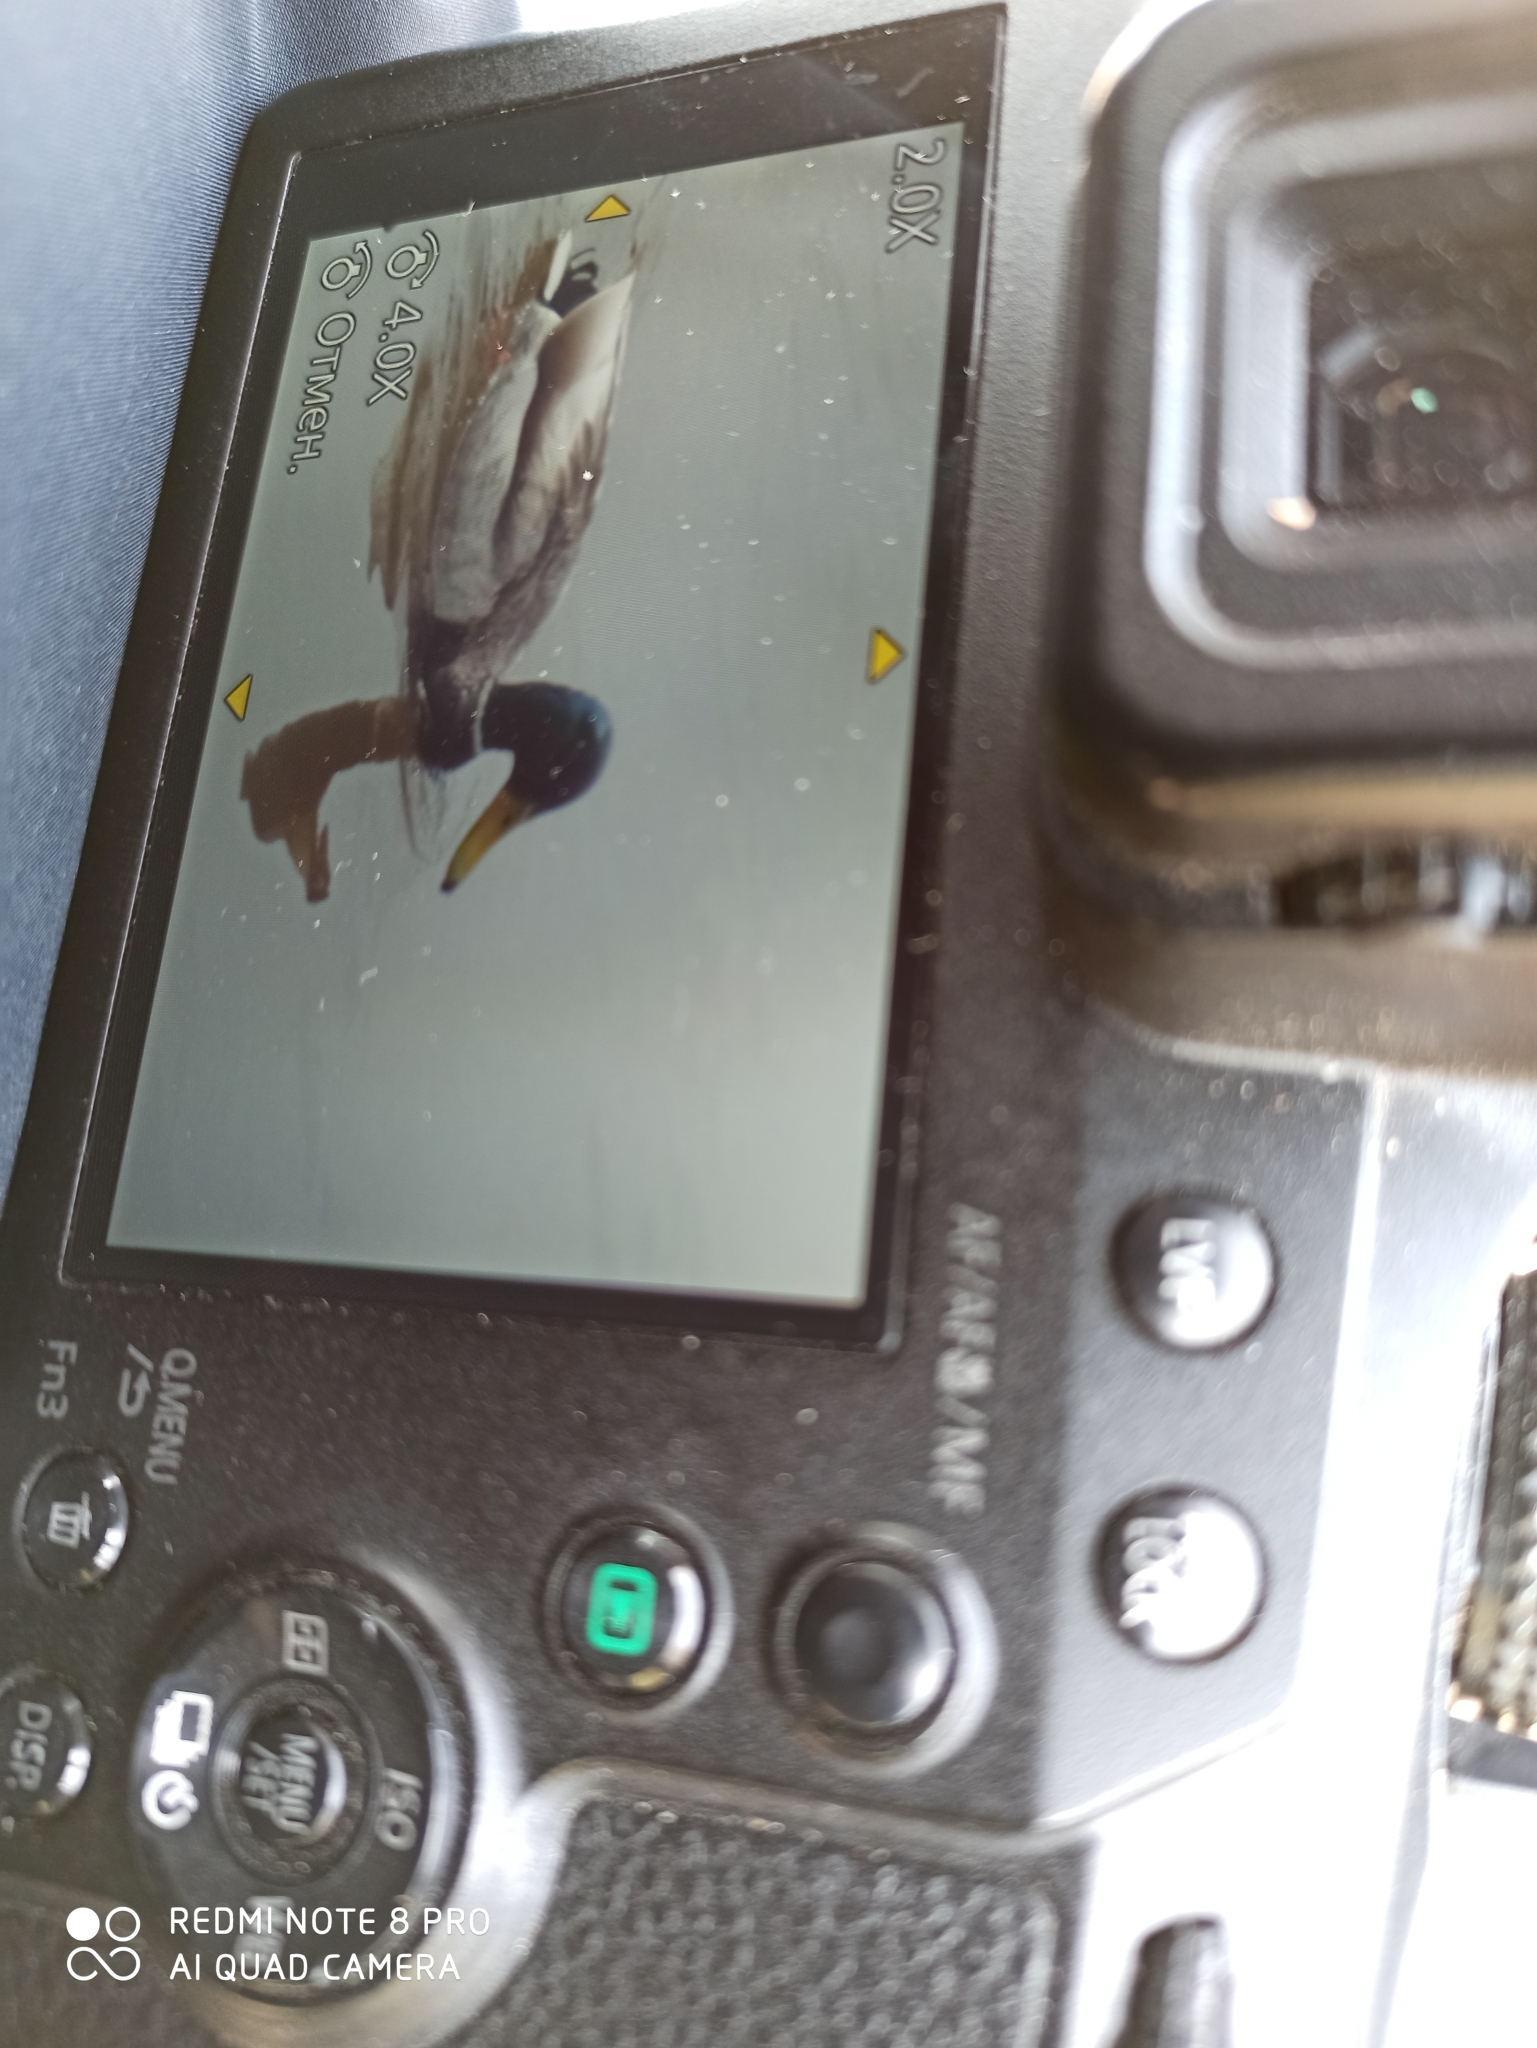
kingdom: Animalia
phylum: Chordata
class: Aves
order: Anseriformes
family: Anatidae
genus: Anas
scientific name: Anas platyrhynchos
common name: Mallard
